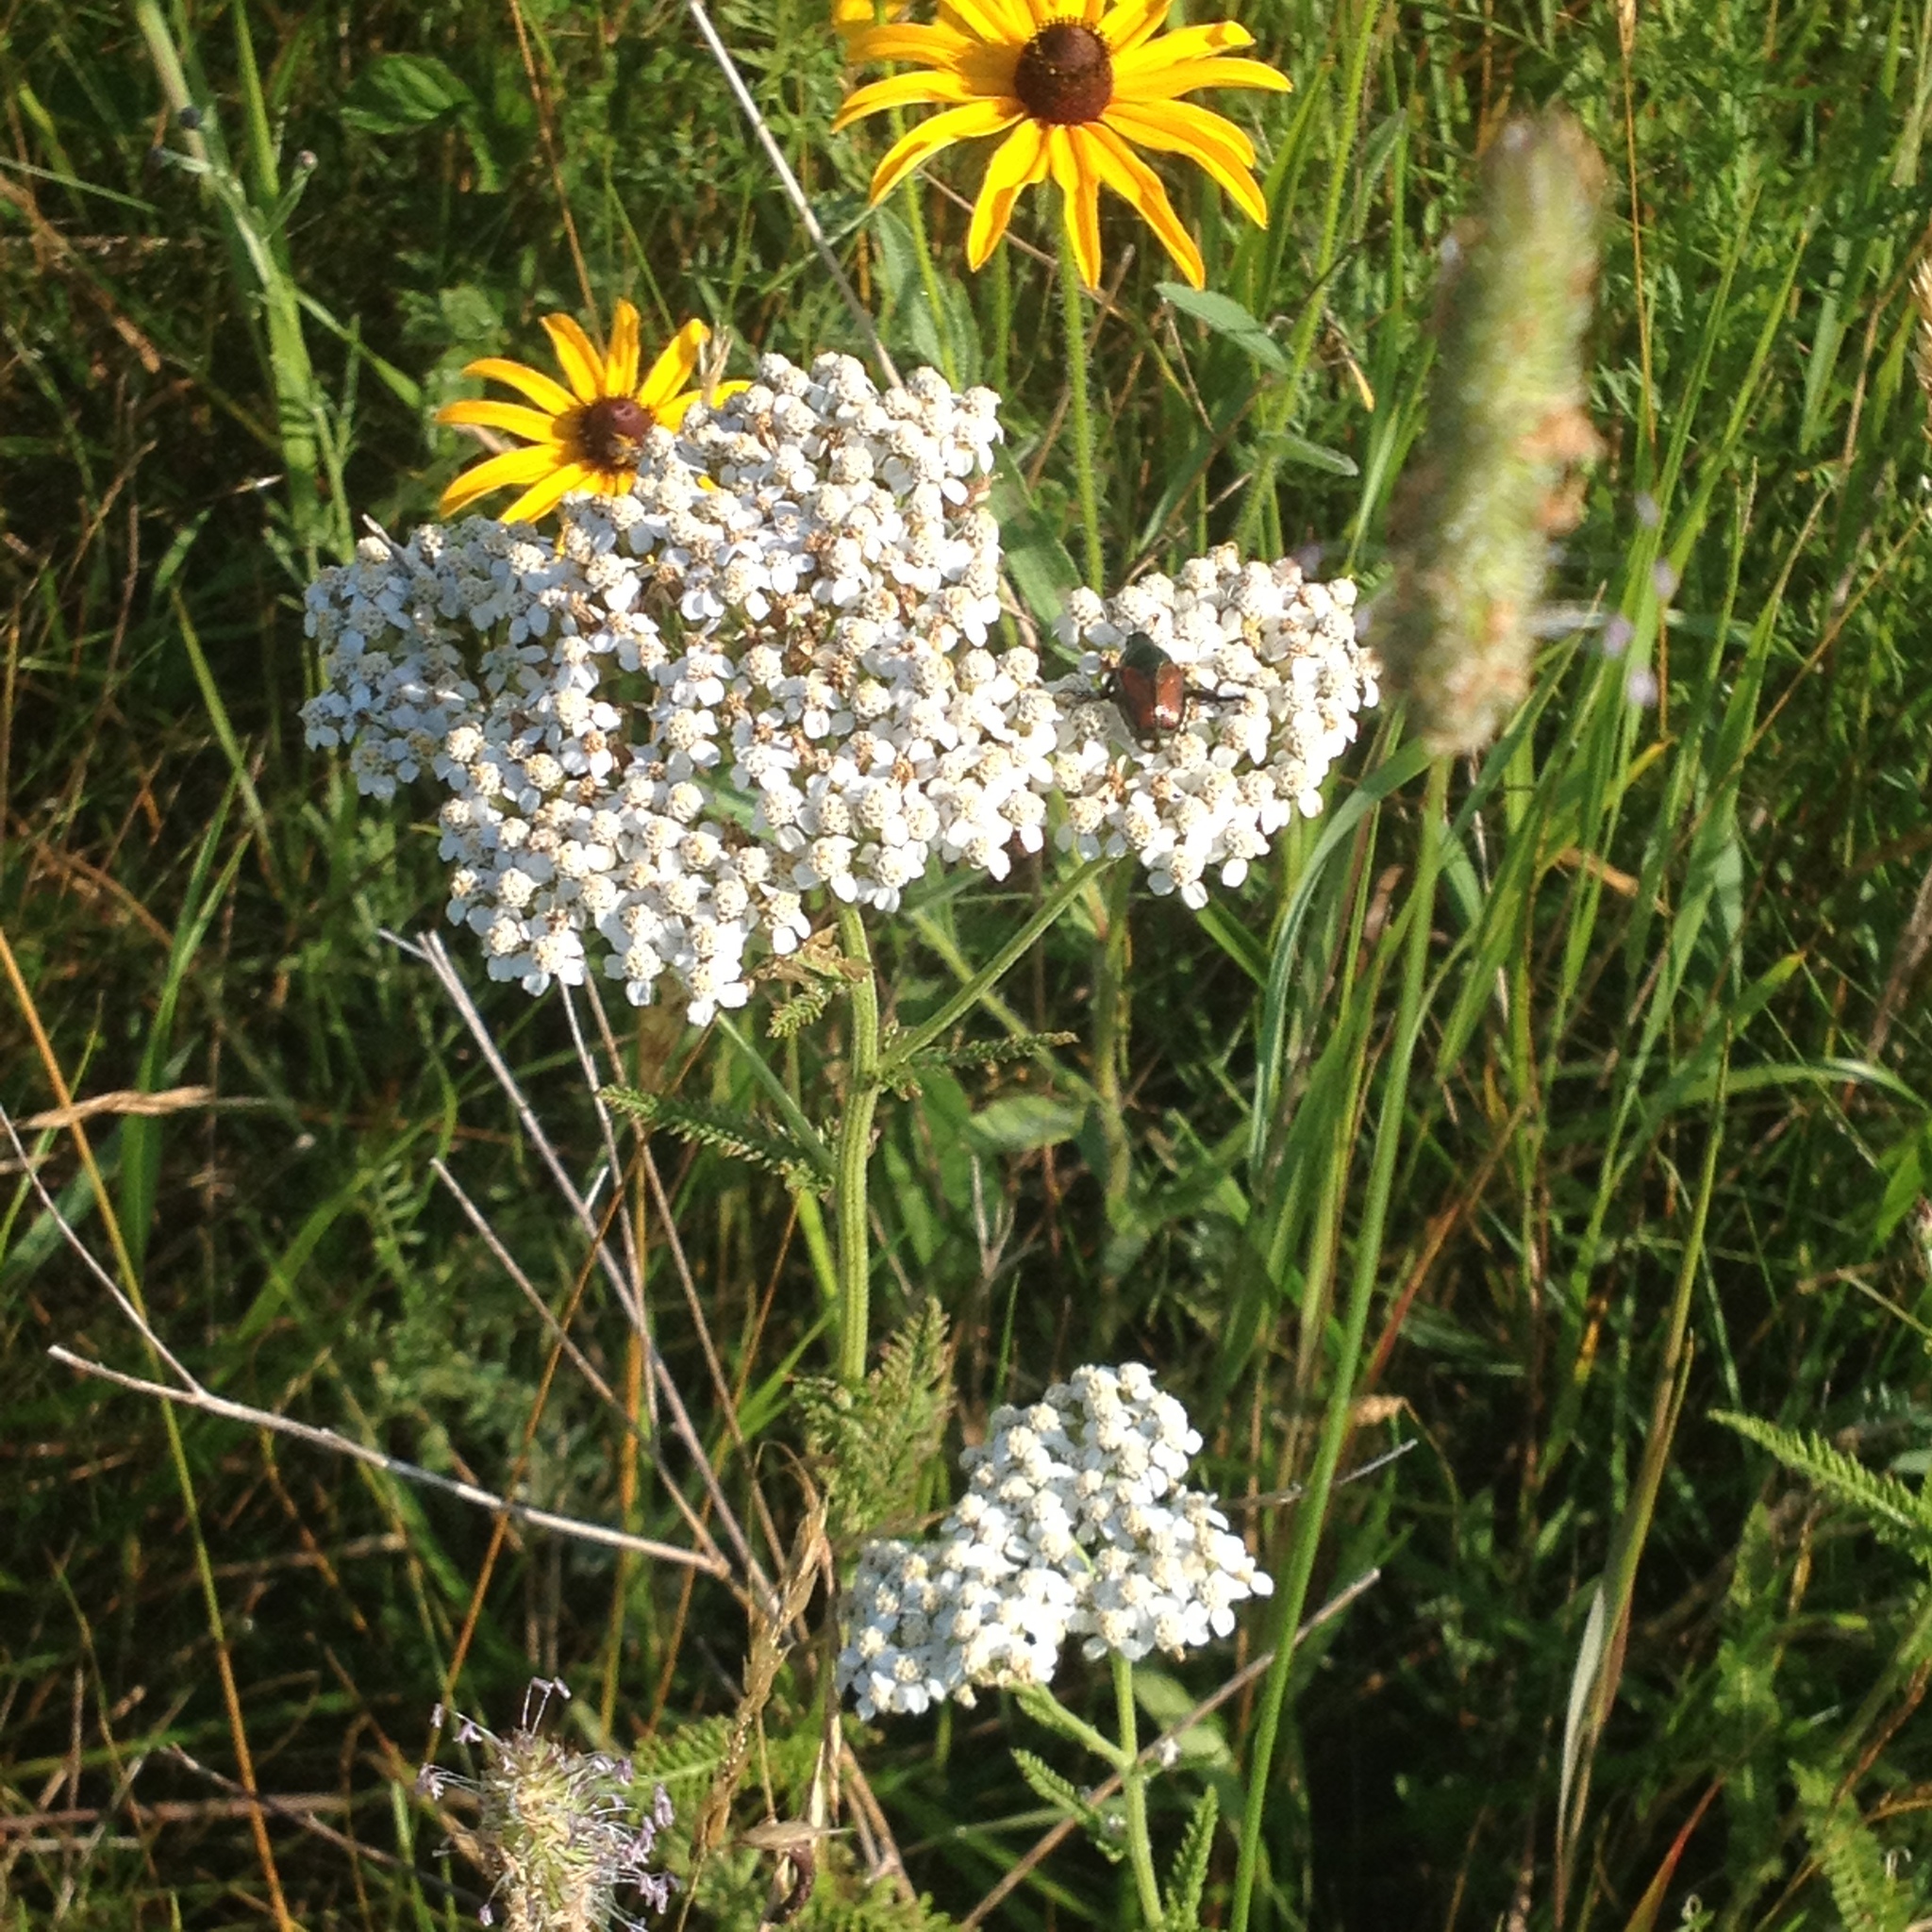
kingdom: Plantae
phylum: Tracheophyta
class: Magnoliopsida
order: Asterales
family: Asteraceae
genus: Achillea
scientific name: Achillea millefolium
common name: Yarrow
